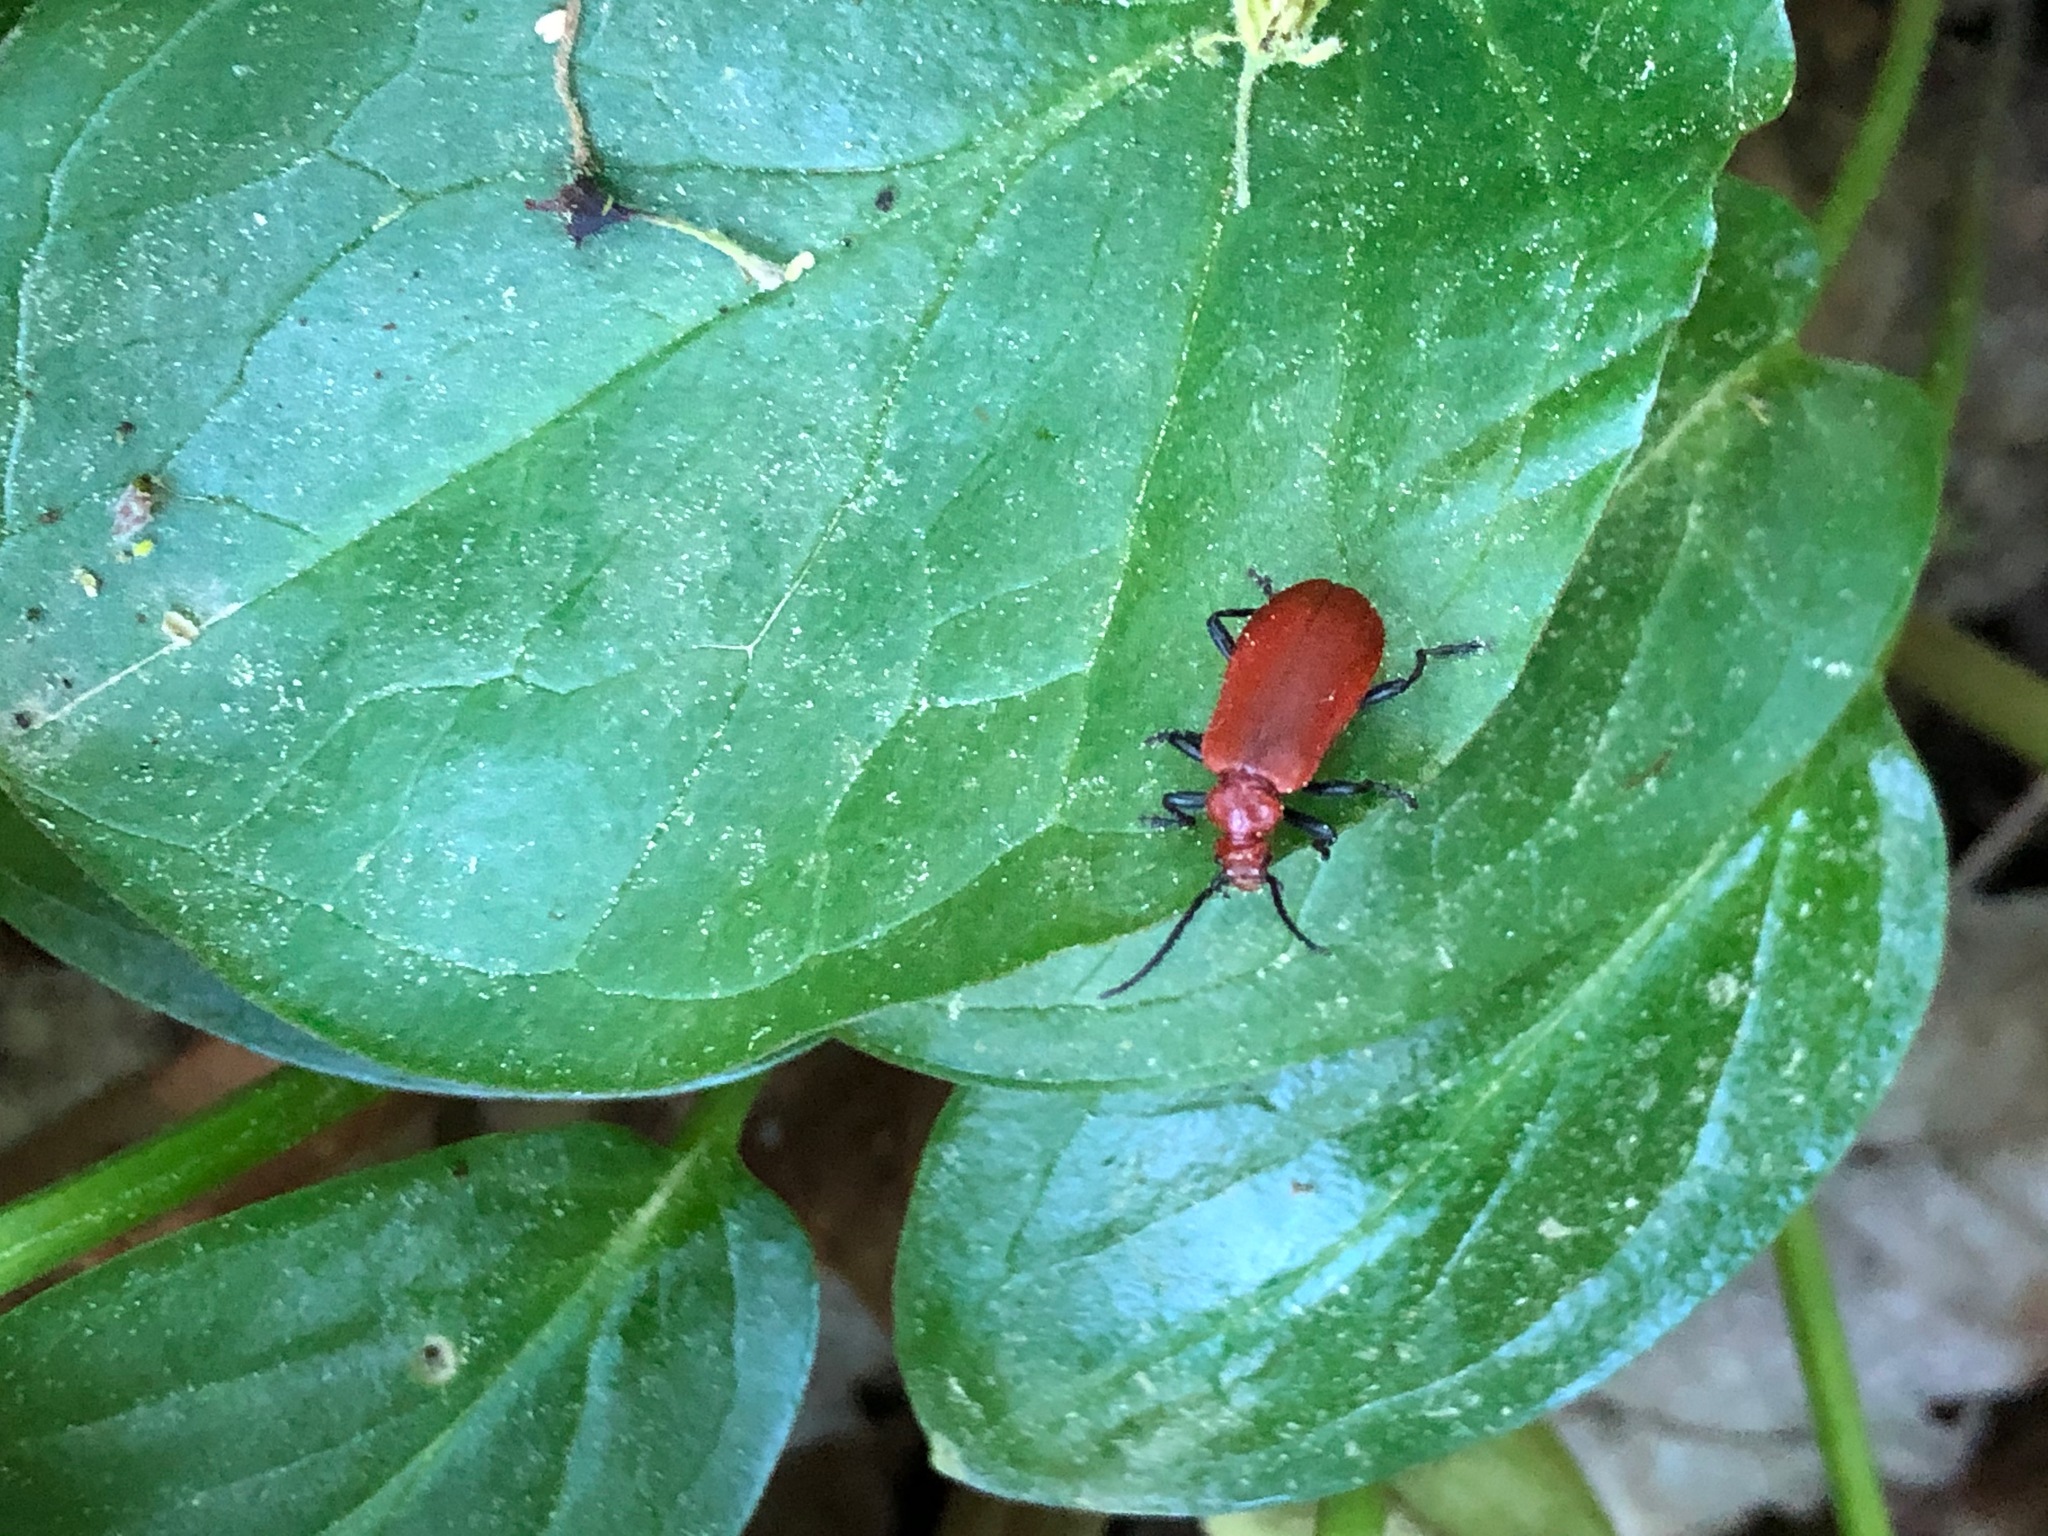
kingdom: Animalia
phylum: Arthropoda
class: Insecta
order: Coleoptera
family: Pyrochroidae
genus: Pyrochroa
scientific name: Pyrochroa serraticornis
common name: Red-headed cardinal beetle
